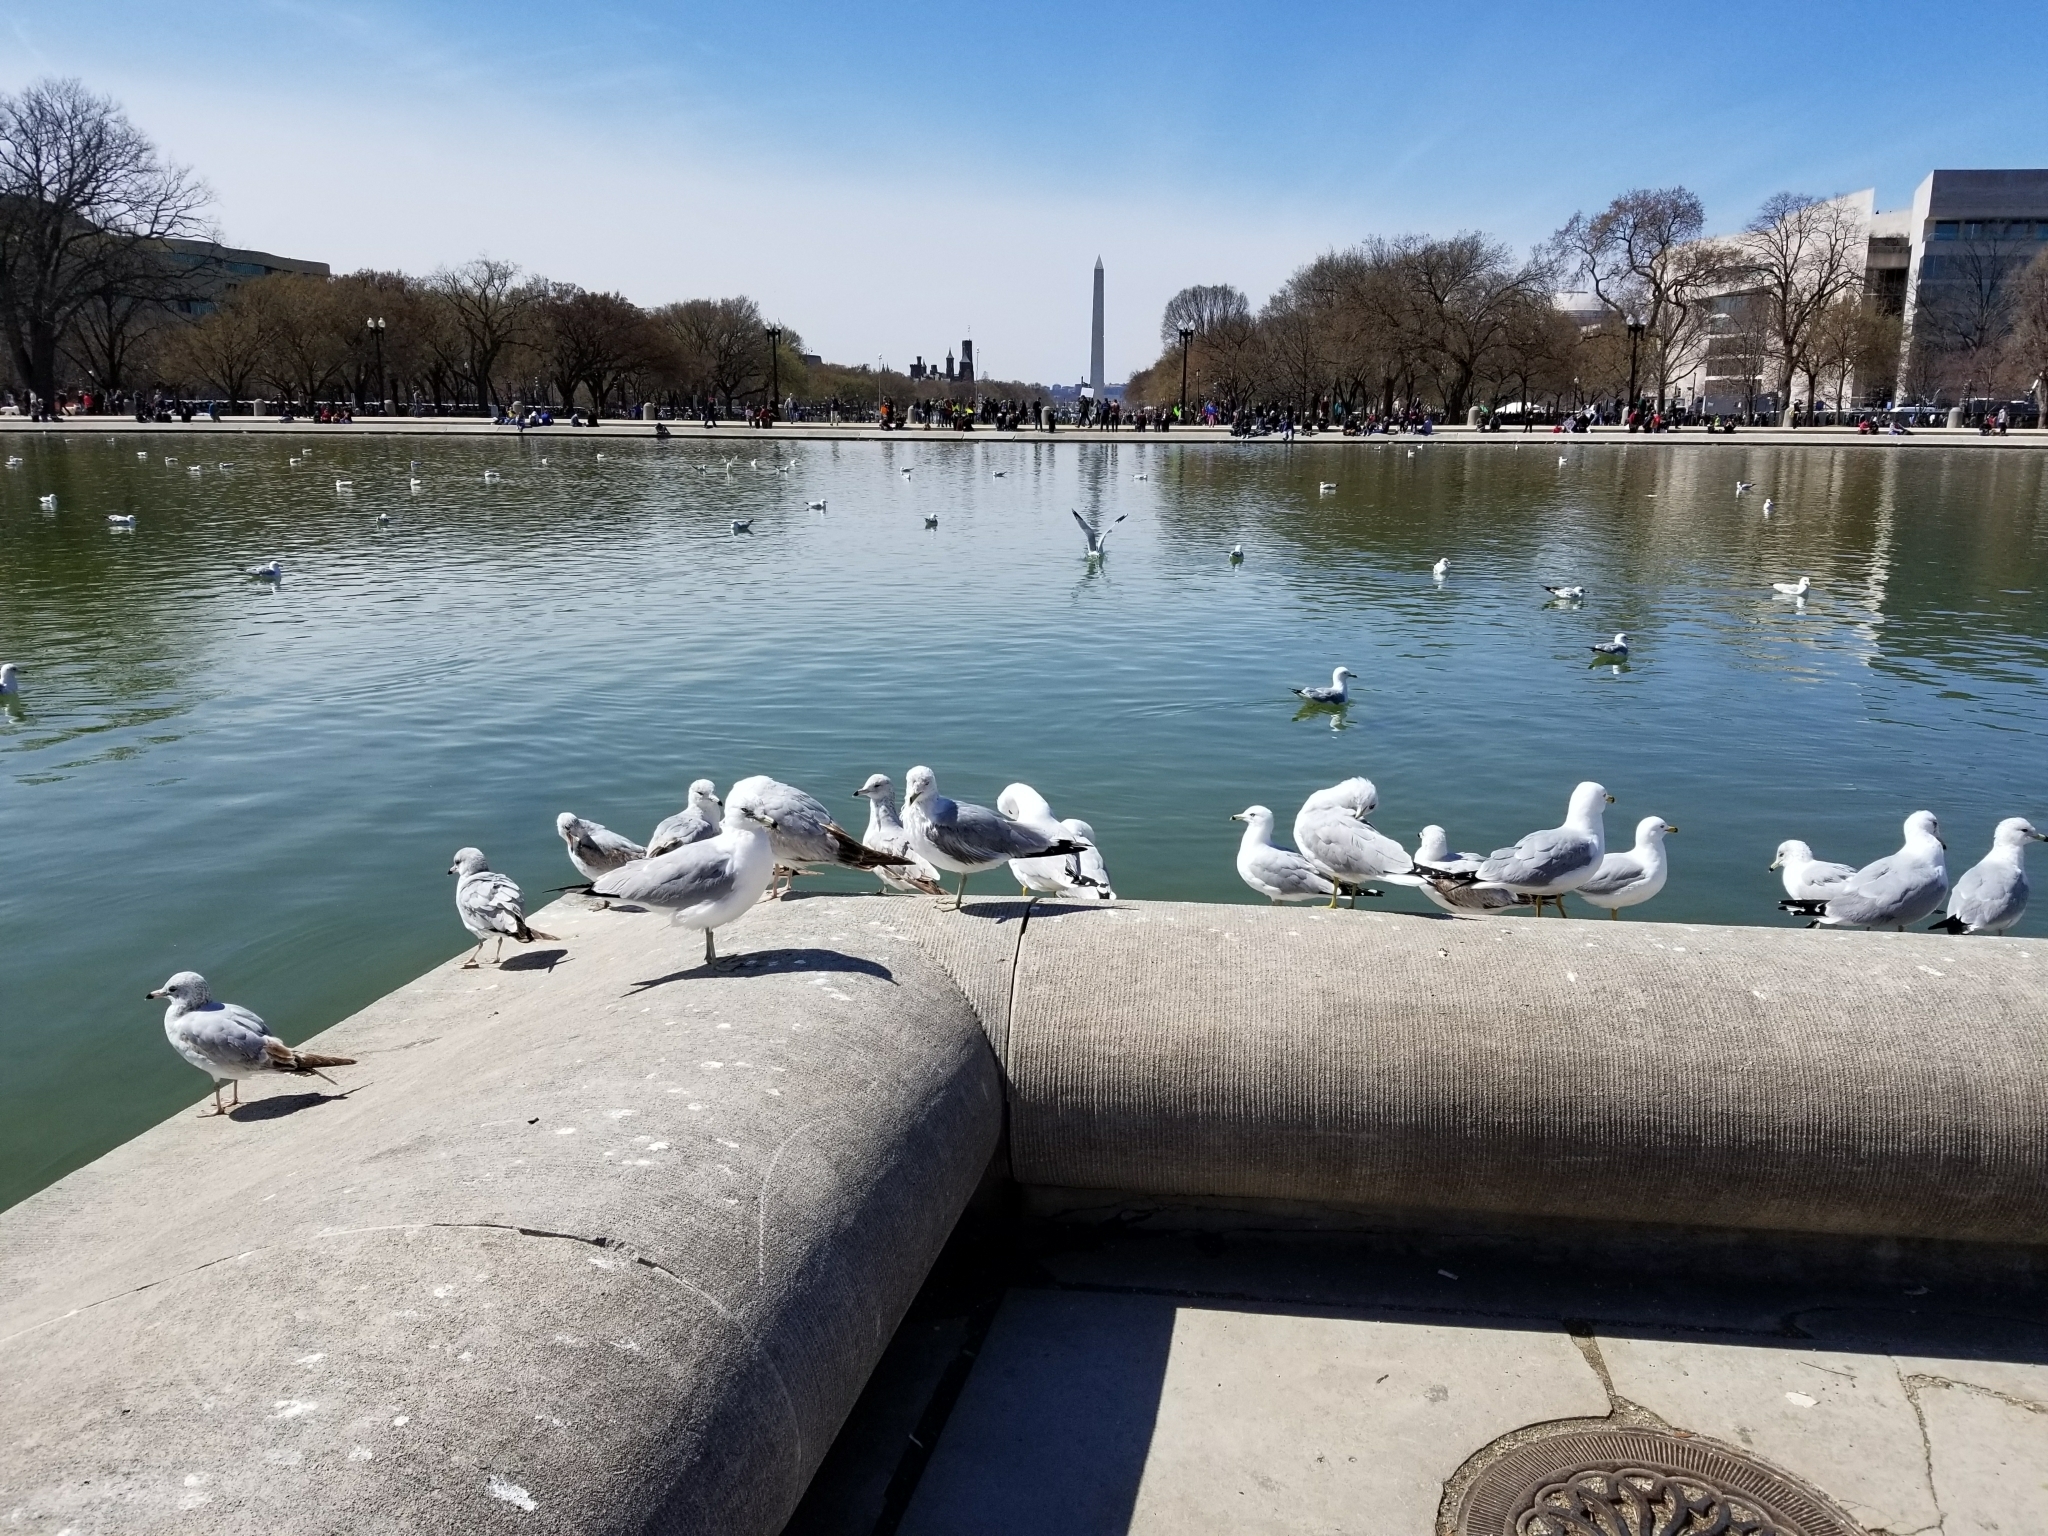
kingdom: Animalia
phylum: Chordata
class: Aves
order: Charadriiformes
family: Laridae
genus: Larus
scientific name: Larus delawarensis
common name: Ring-billed gull
